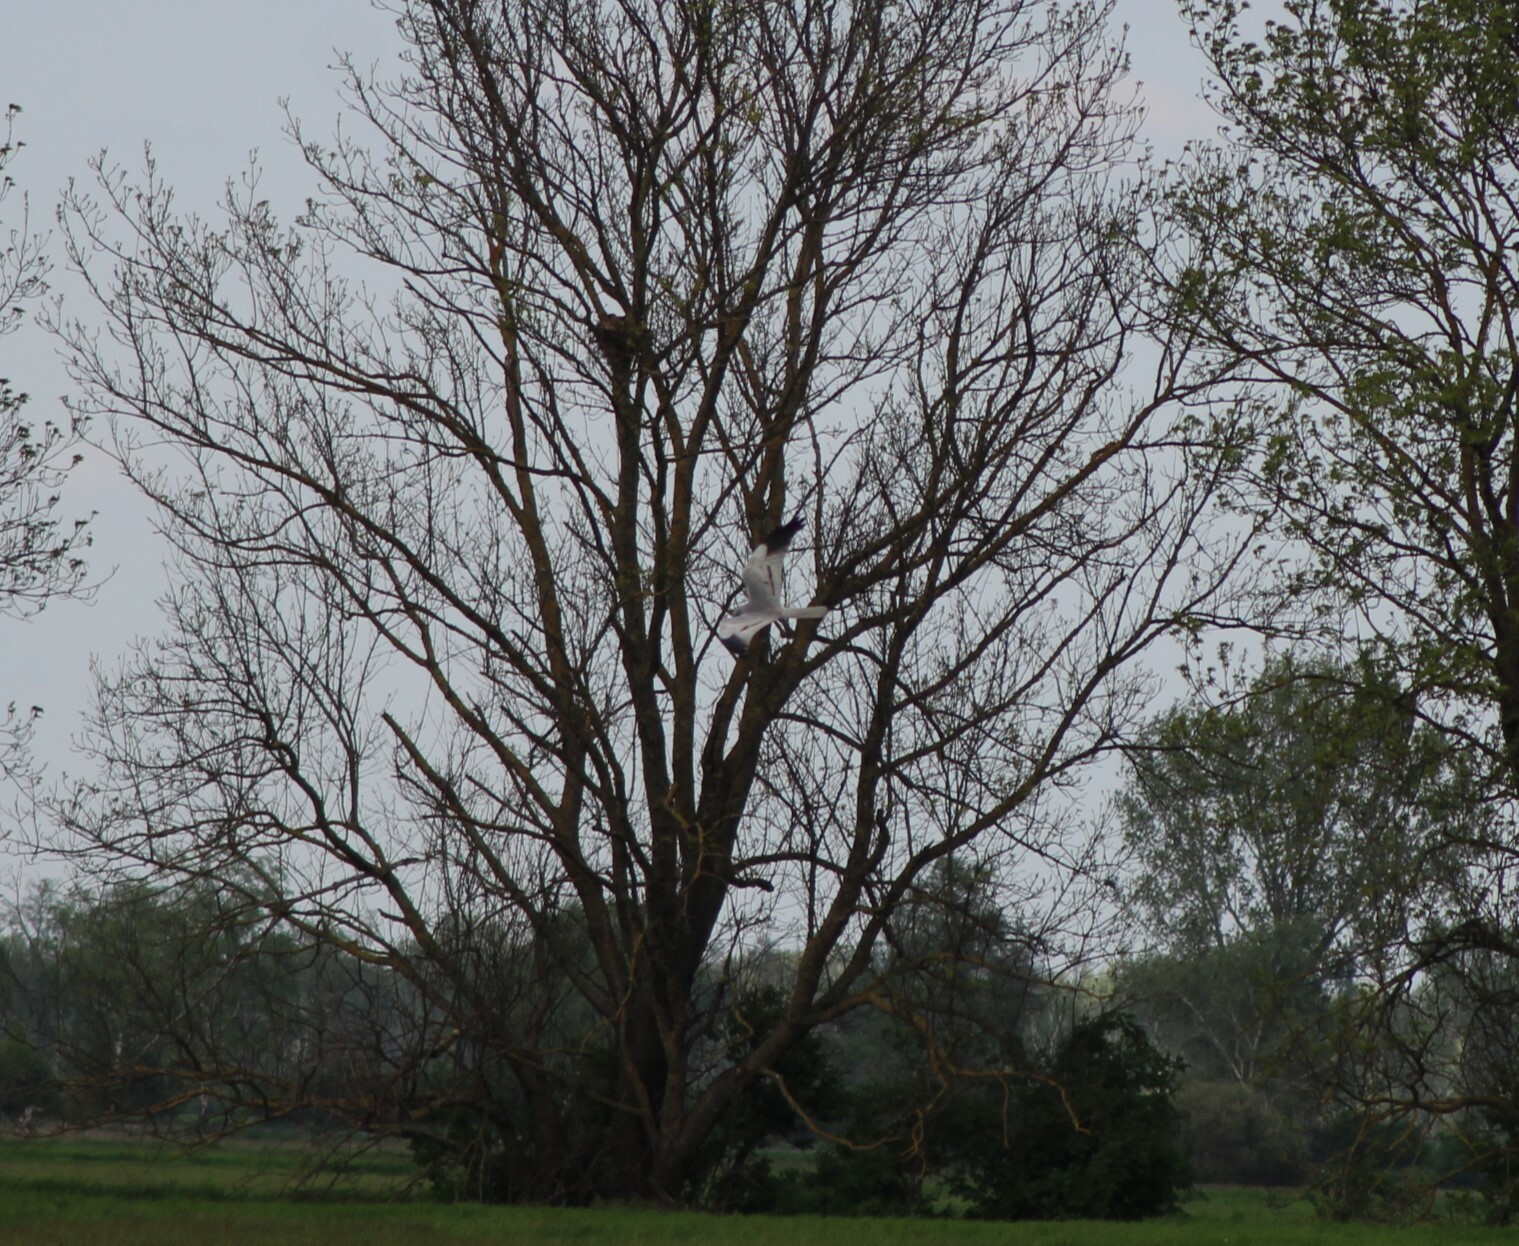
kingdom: Animalia
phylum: Chordata
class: Aves
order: Accipitriformes
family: Accipitridae
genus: Circus
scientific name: Circus pygargus
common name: Montagu's harrier
